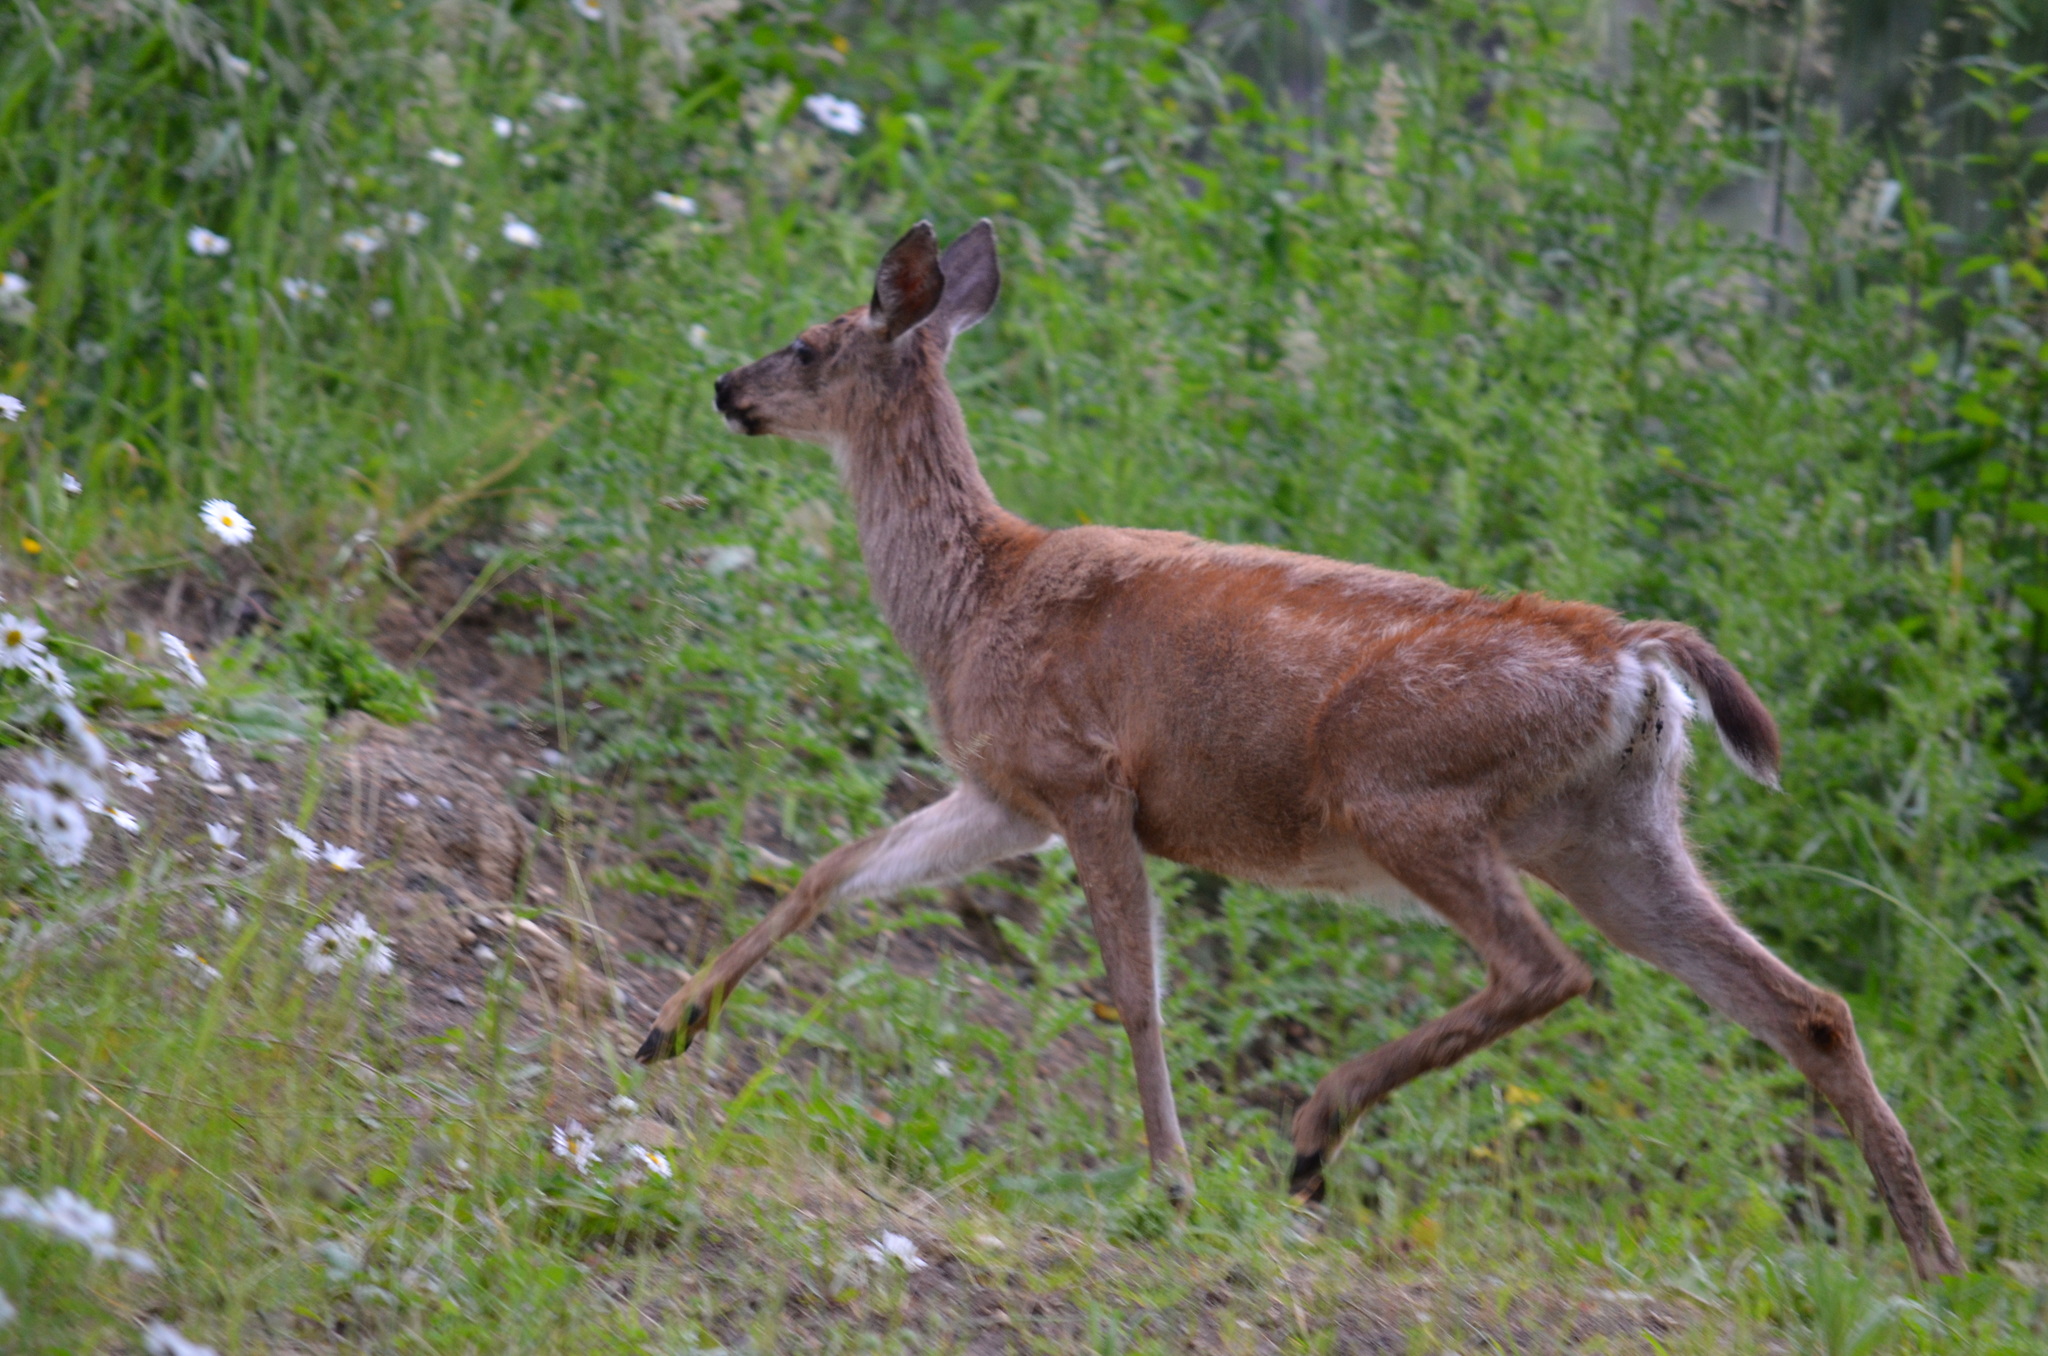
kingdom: Animalia
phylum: Chordata
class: Mammalia
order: Artiodactyla
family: Cervidae
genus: Odocoileus
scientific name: Odocoileus hemionus
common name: Mule deer
